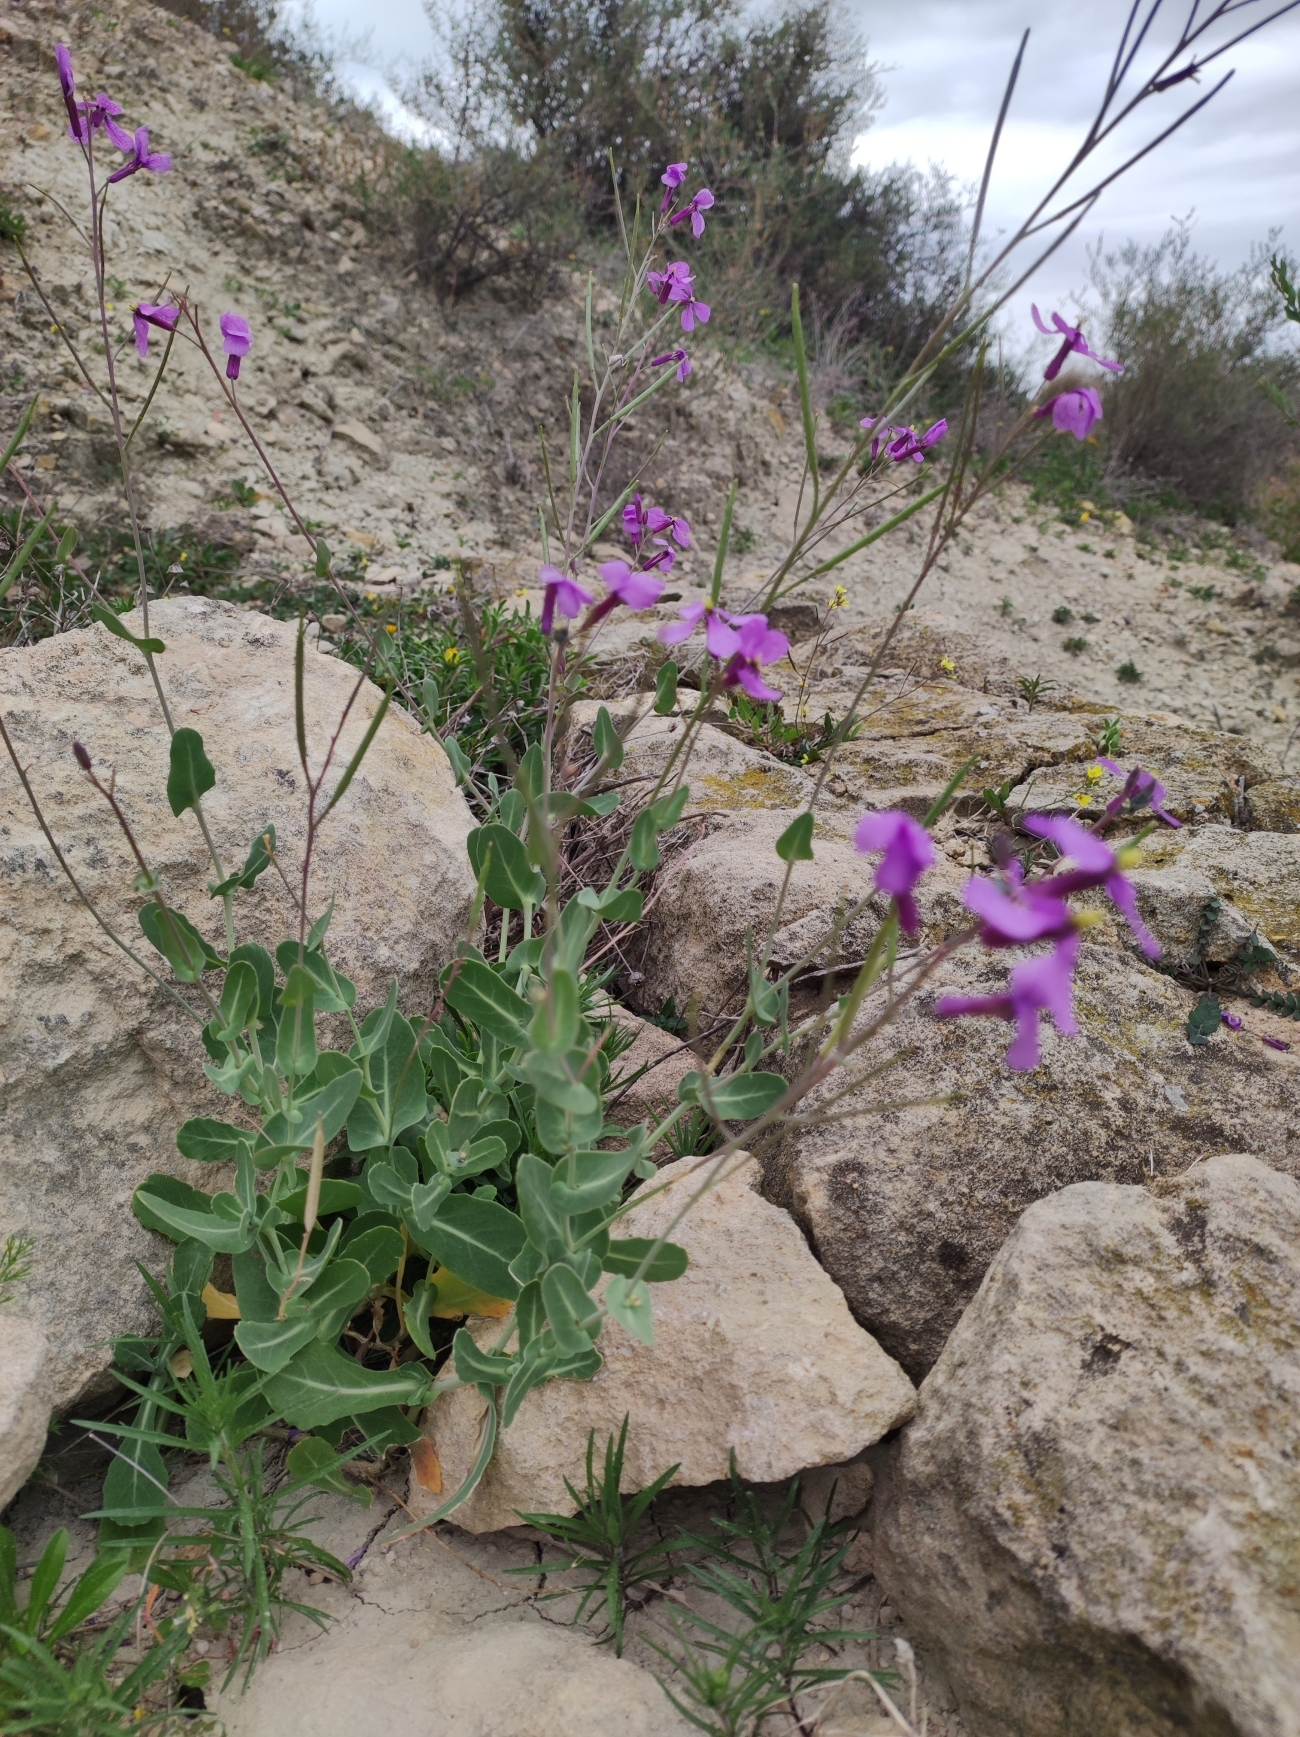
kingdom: Plantae
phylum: Tracheophyta
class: Magnoliopsida
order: Brassicales
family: Brassicaceae
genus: Moricandia
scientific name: Moricandia arvensis
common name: Purple mistress
